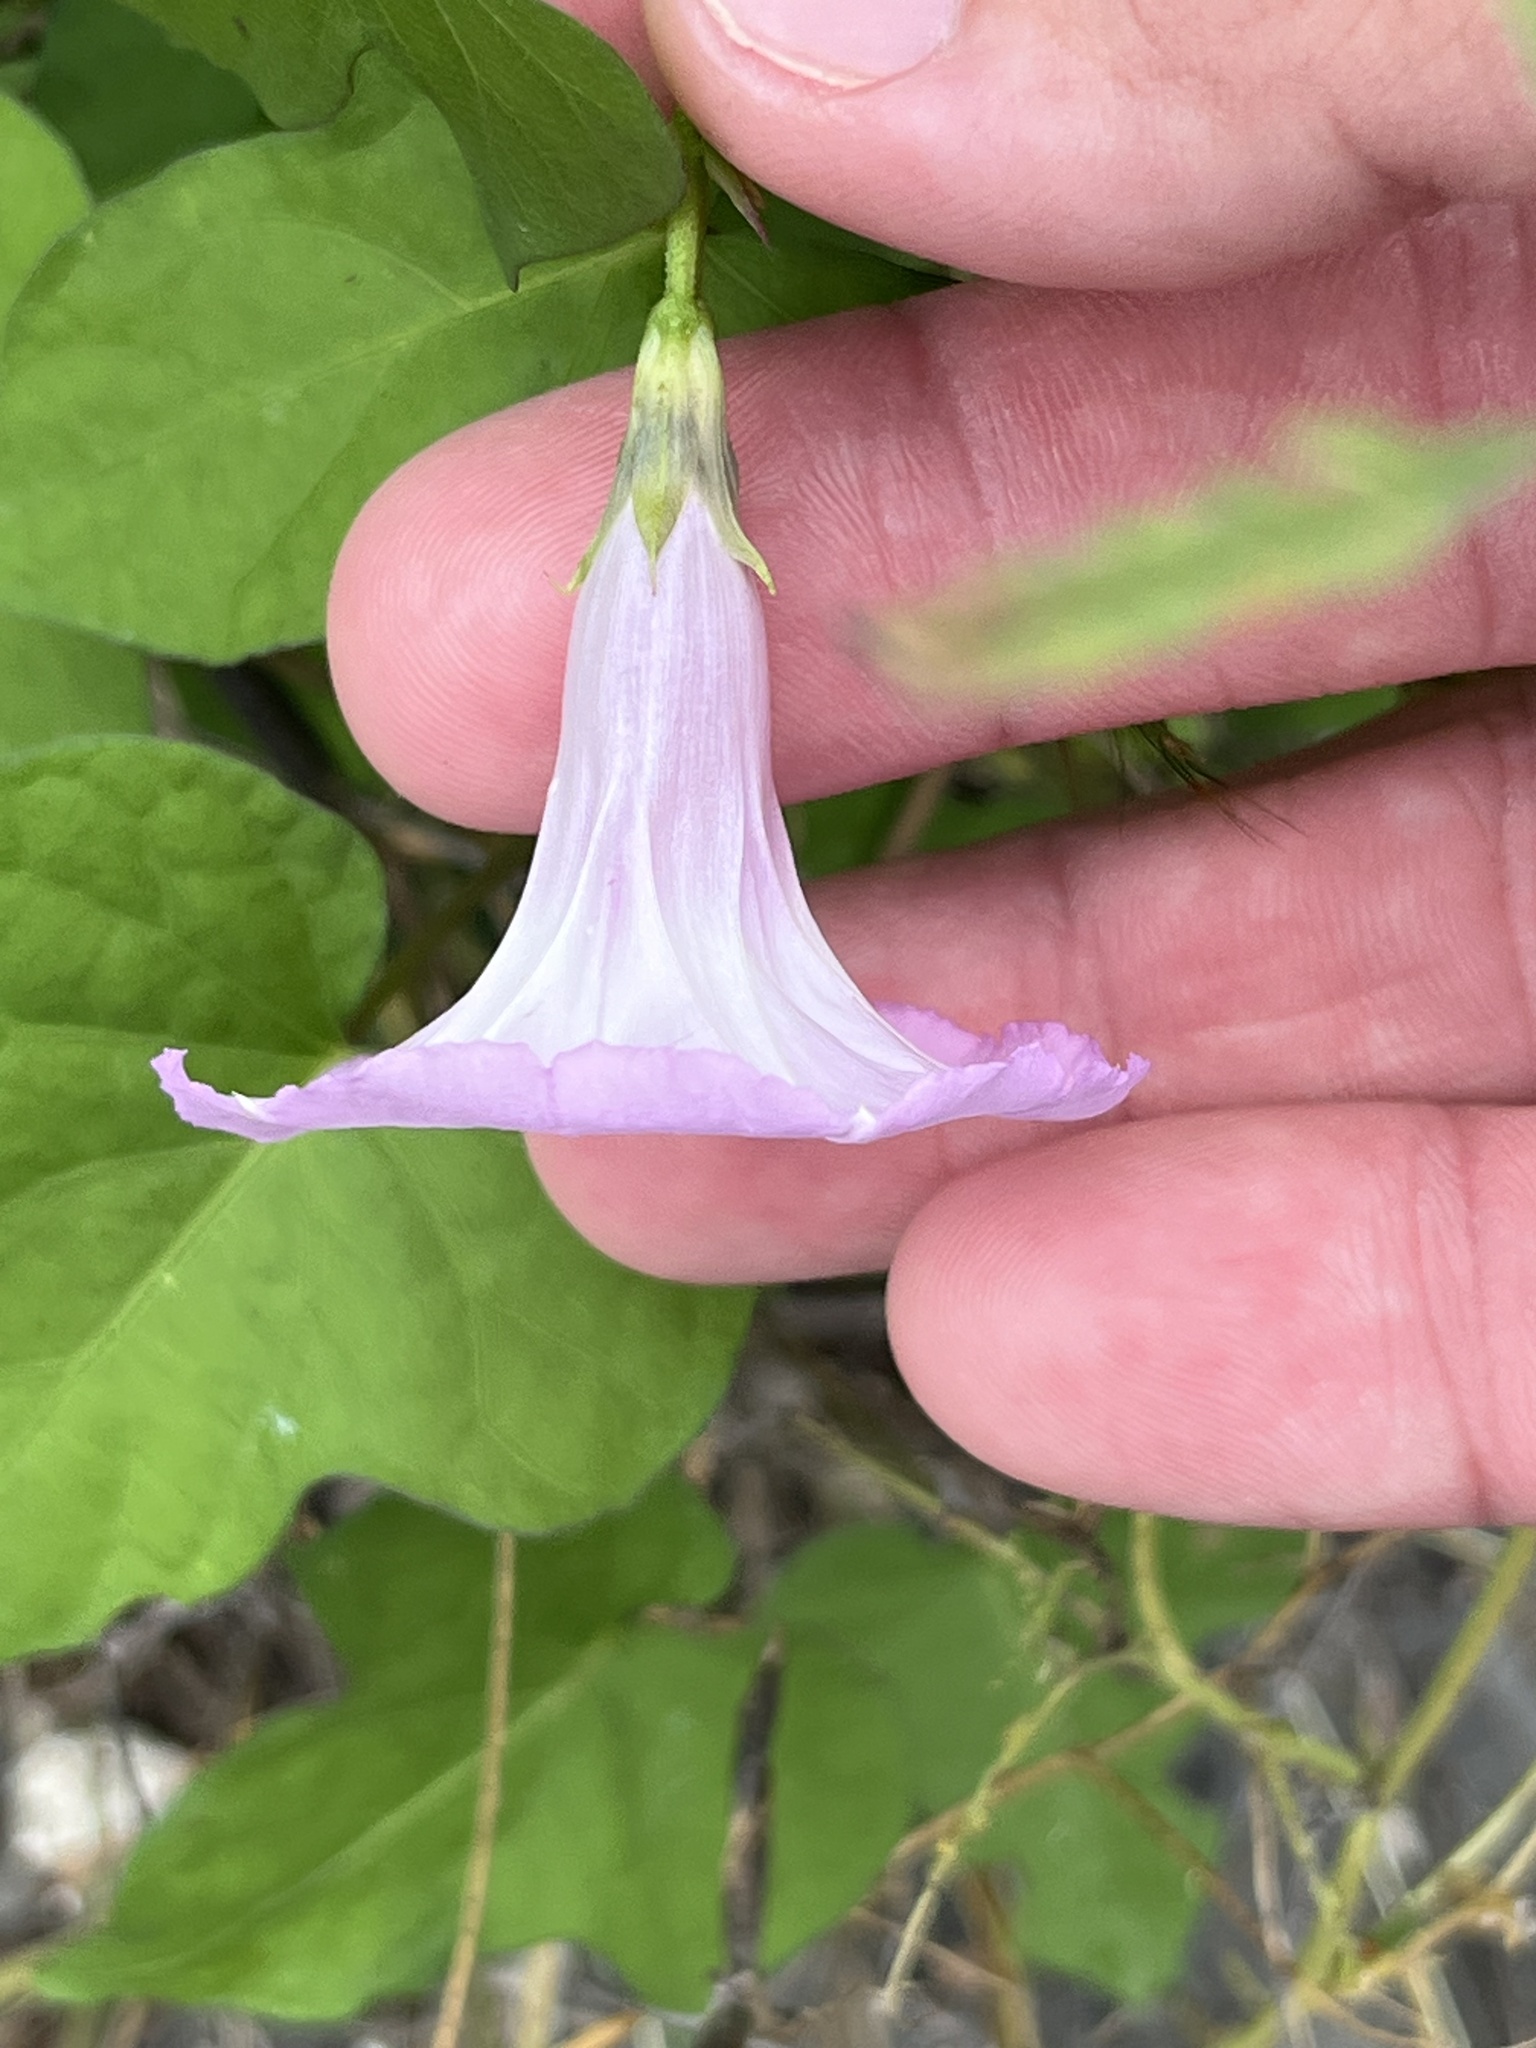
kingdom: Plantae
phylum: Tracheophyta
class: Magnoliopsida
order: Solanales
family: Convolvulaceae
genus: Ipomoea
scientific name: Ipomoea cordatotriloba
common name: Cotton morning glory
